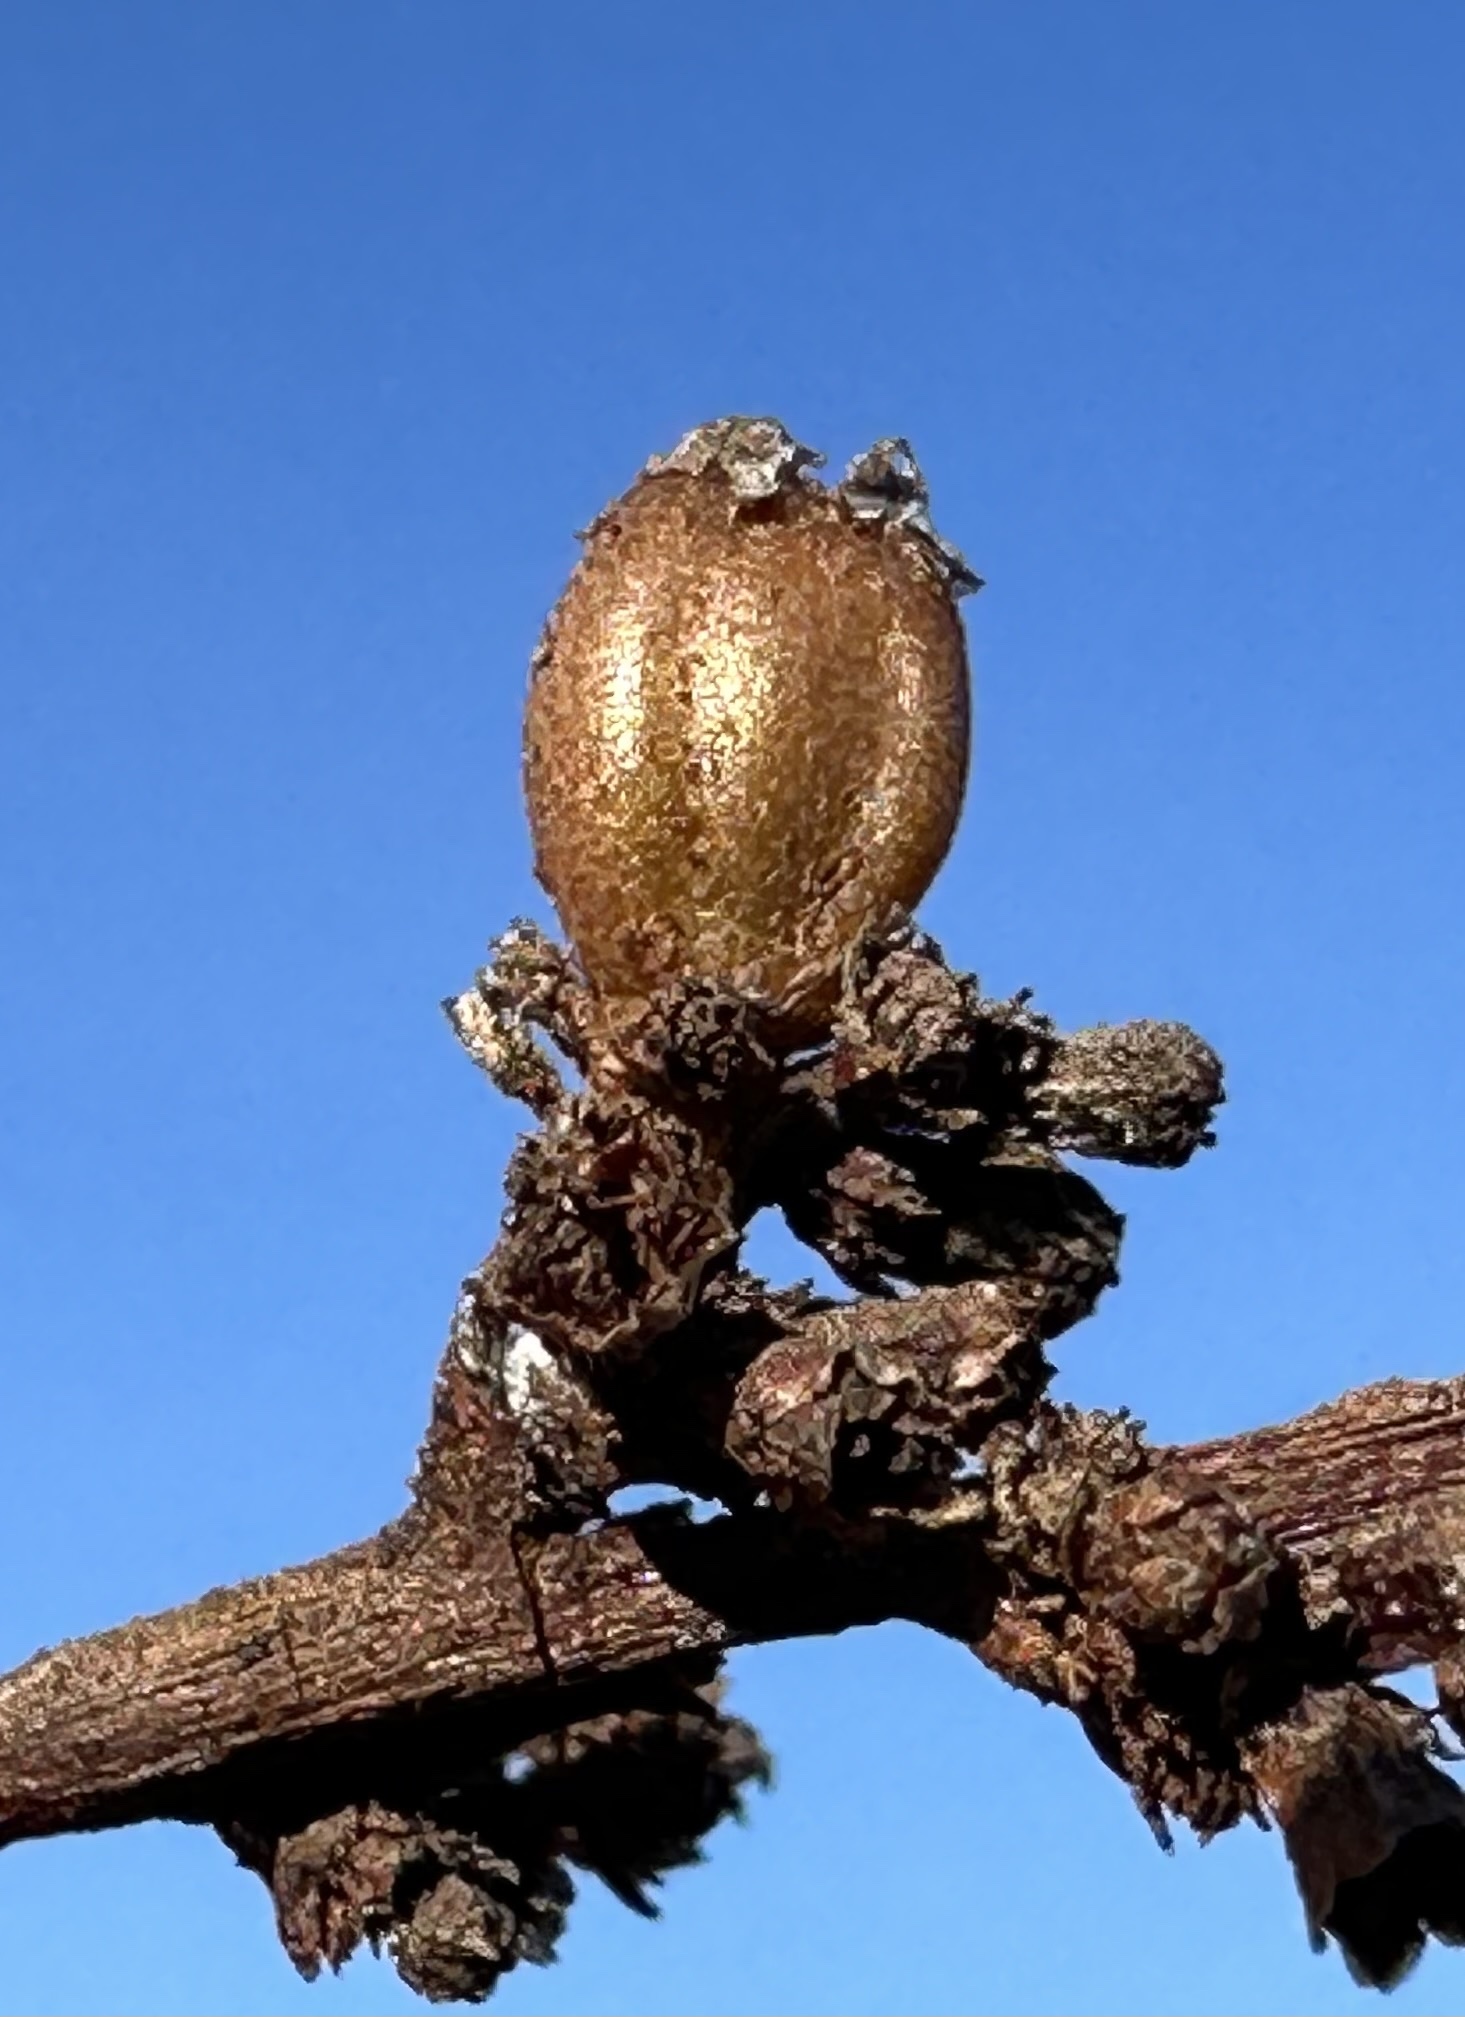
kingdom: Animalia
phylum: Arthropoda
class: Insecta
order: Diptera
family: Cecidomyiidae
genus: Asphondylia
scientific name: Asphondylia adenostoma
